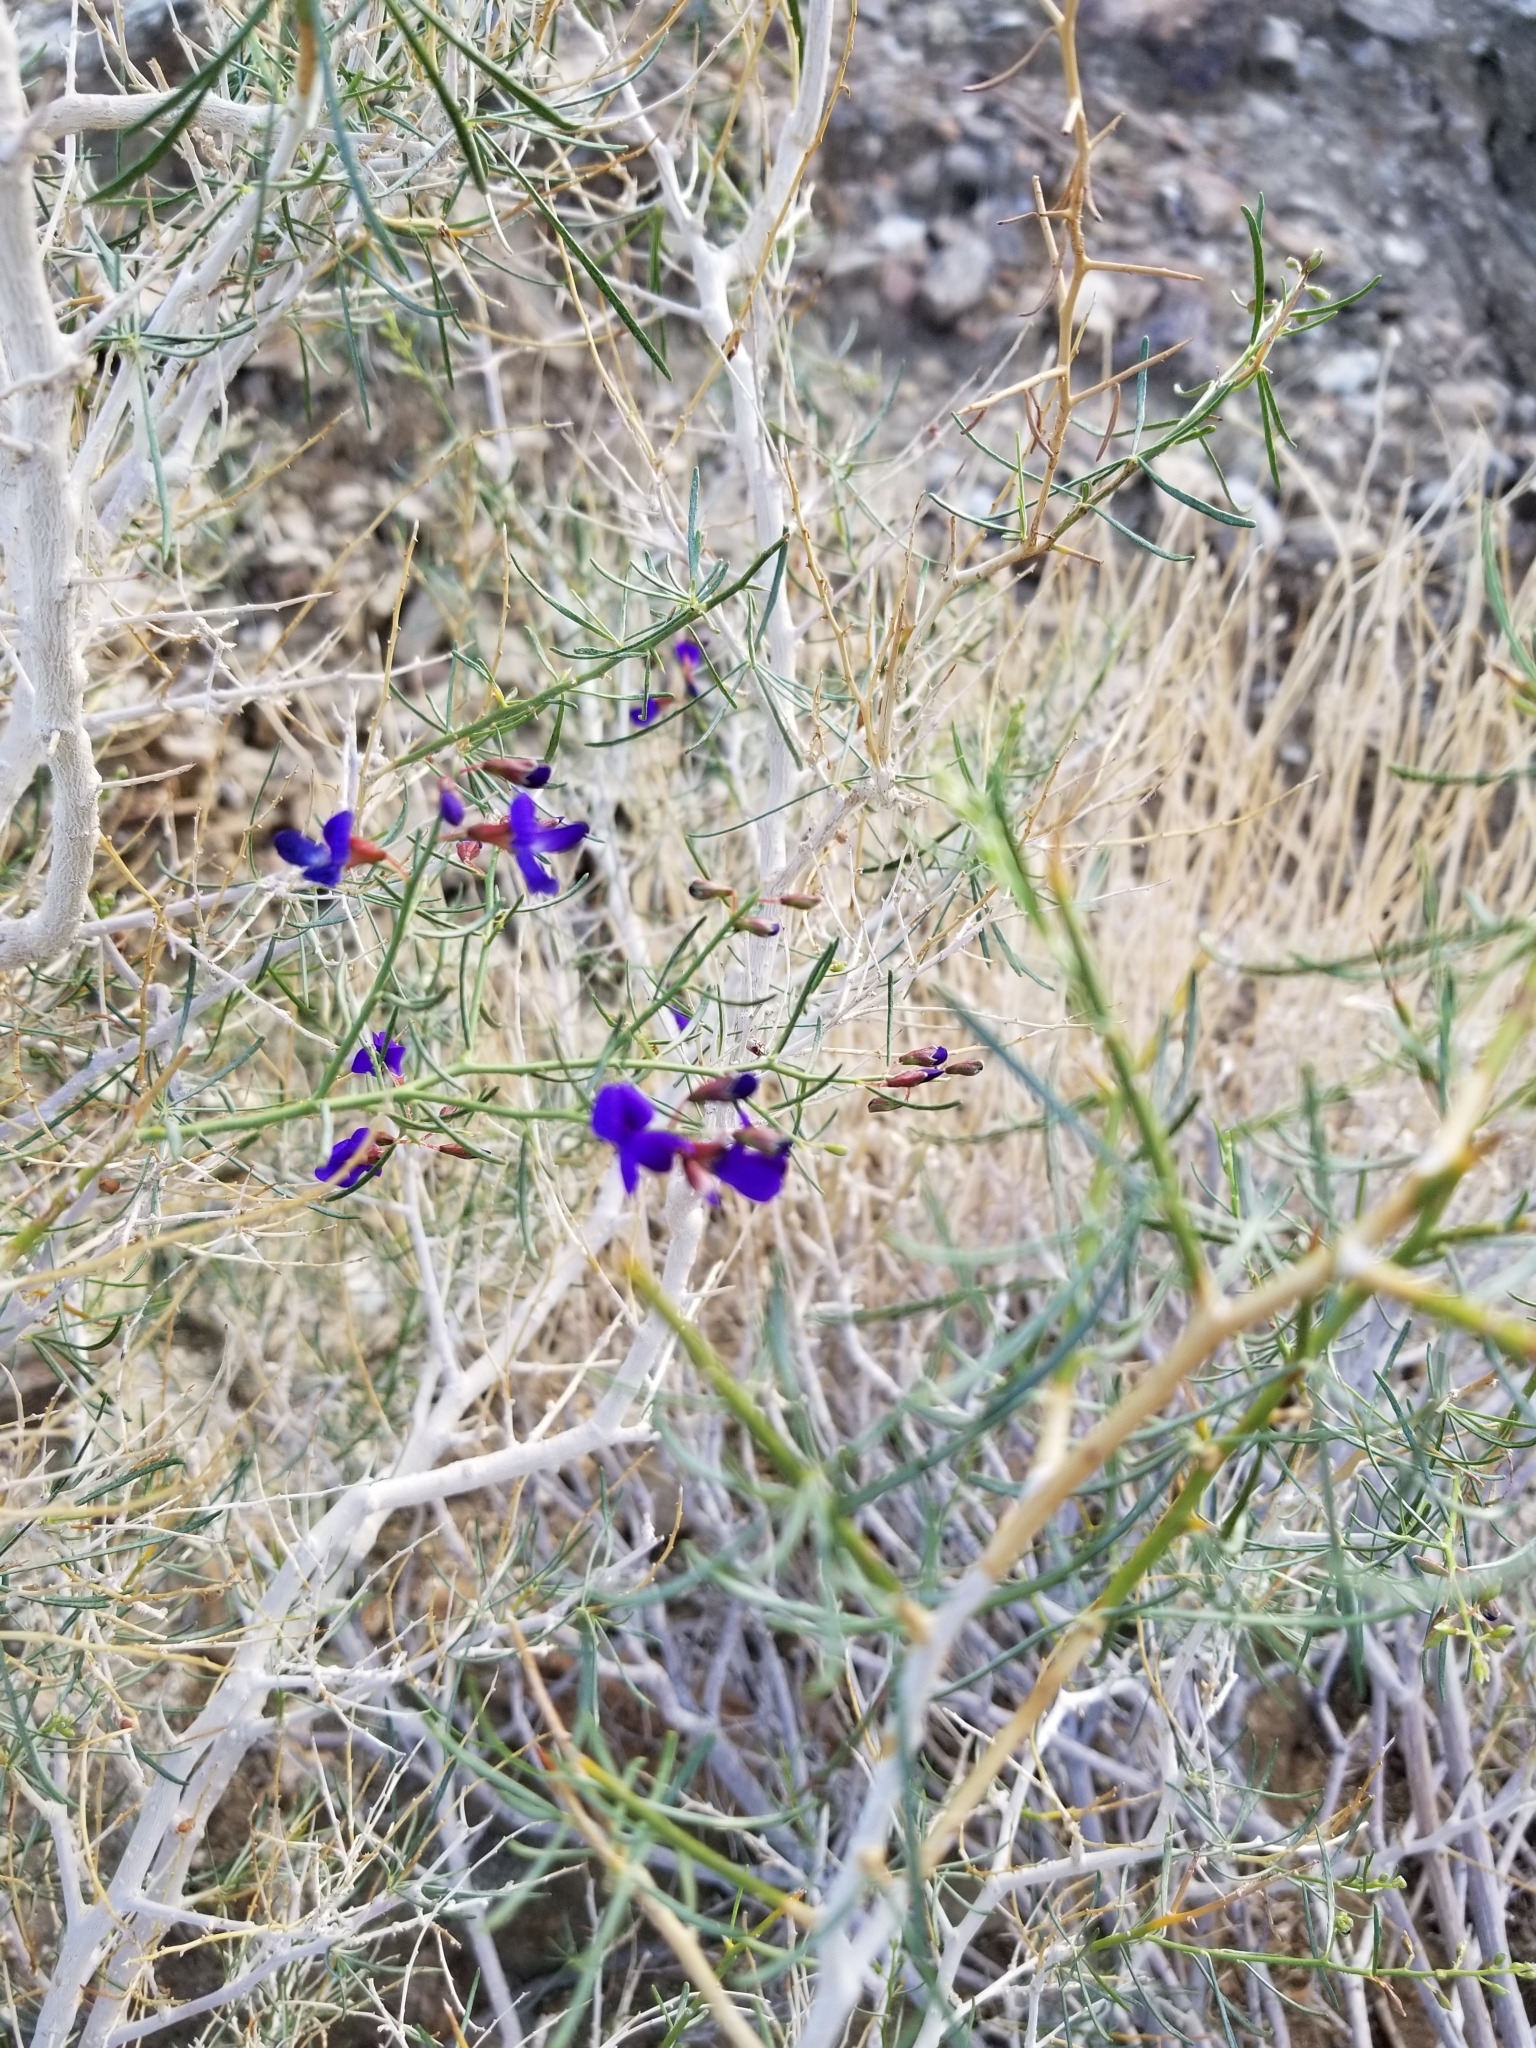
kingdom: Plantae
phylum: Tracheophyta
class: Magnoliopsida
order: Fabales
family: Fabaceae
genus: Psorothamnus
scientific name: Psorothamnus schottii
